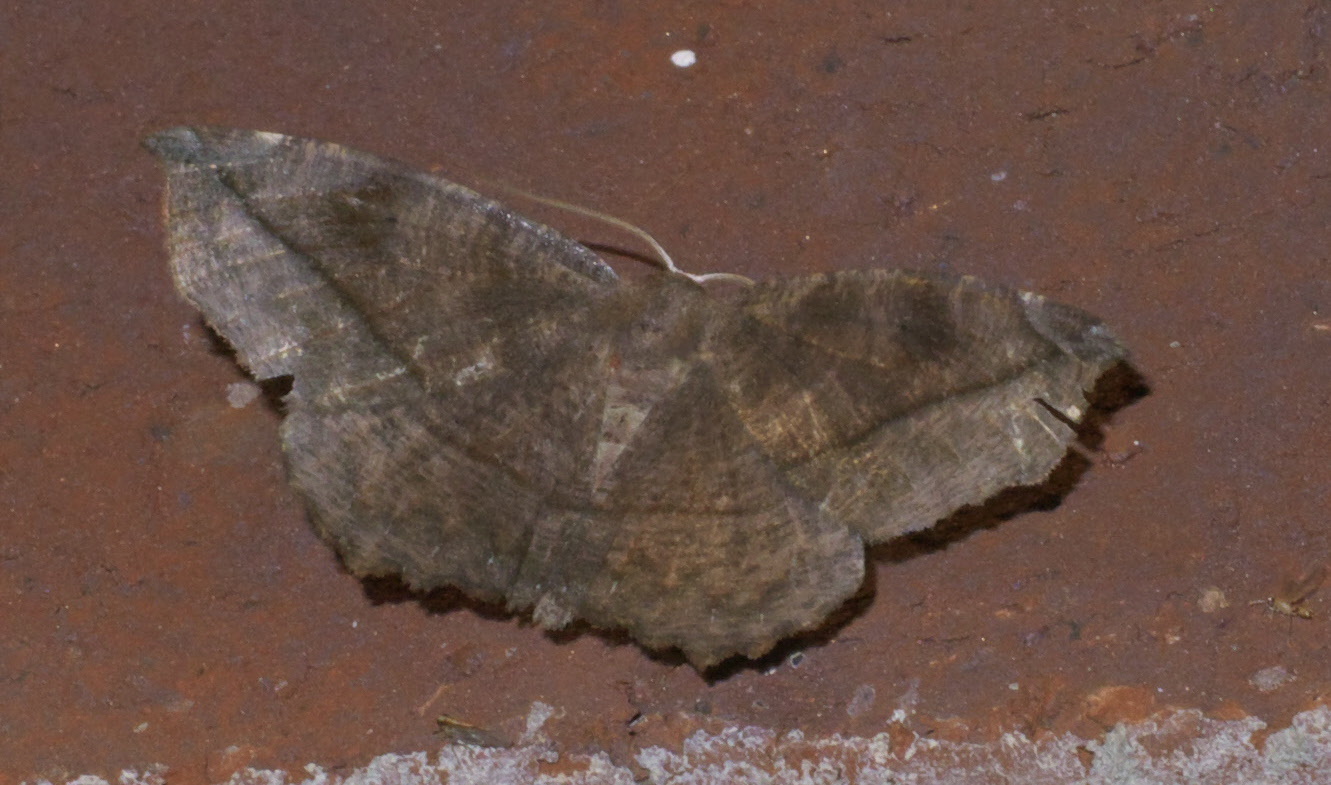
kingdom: Animalia
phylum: Arthropoda
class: Insecta
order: Lepidoptera
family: Geometridae
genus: Eutrapela
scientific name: Eutrapela clemataria
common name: Curved-toothed geometer
